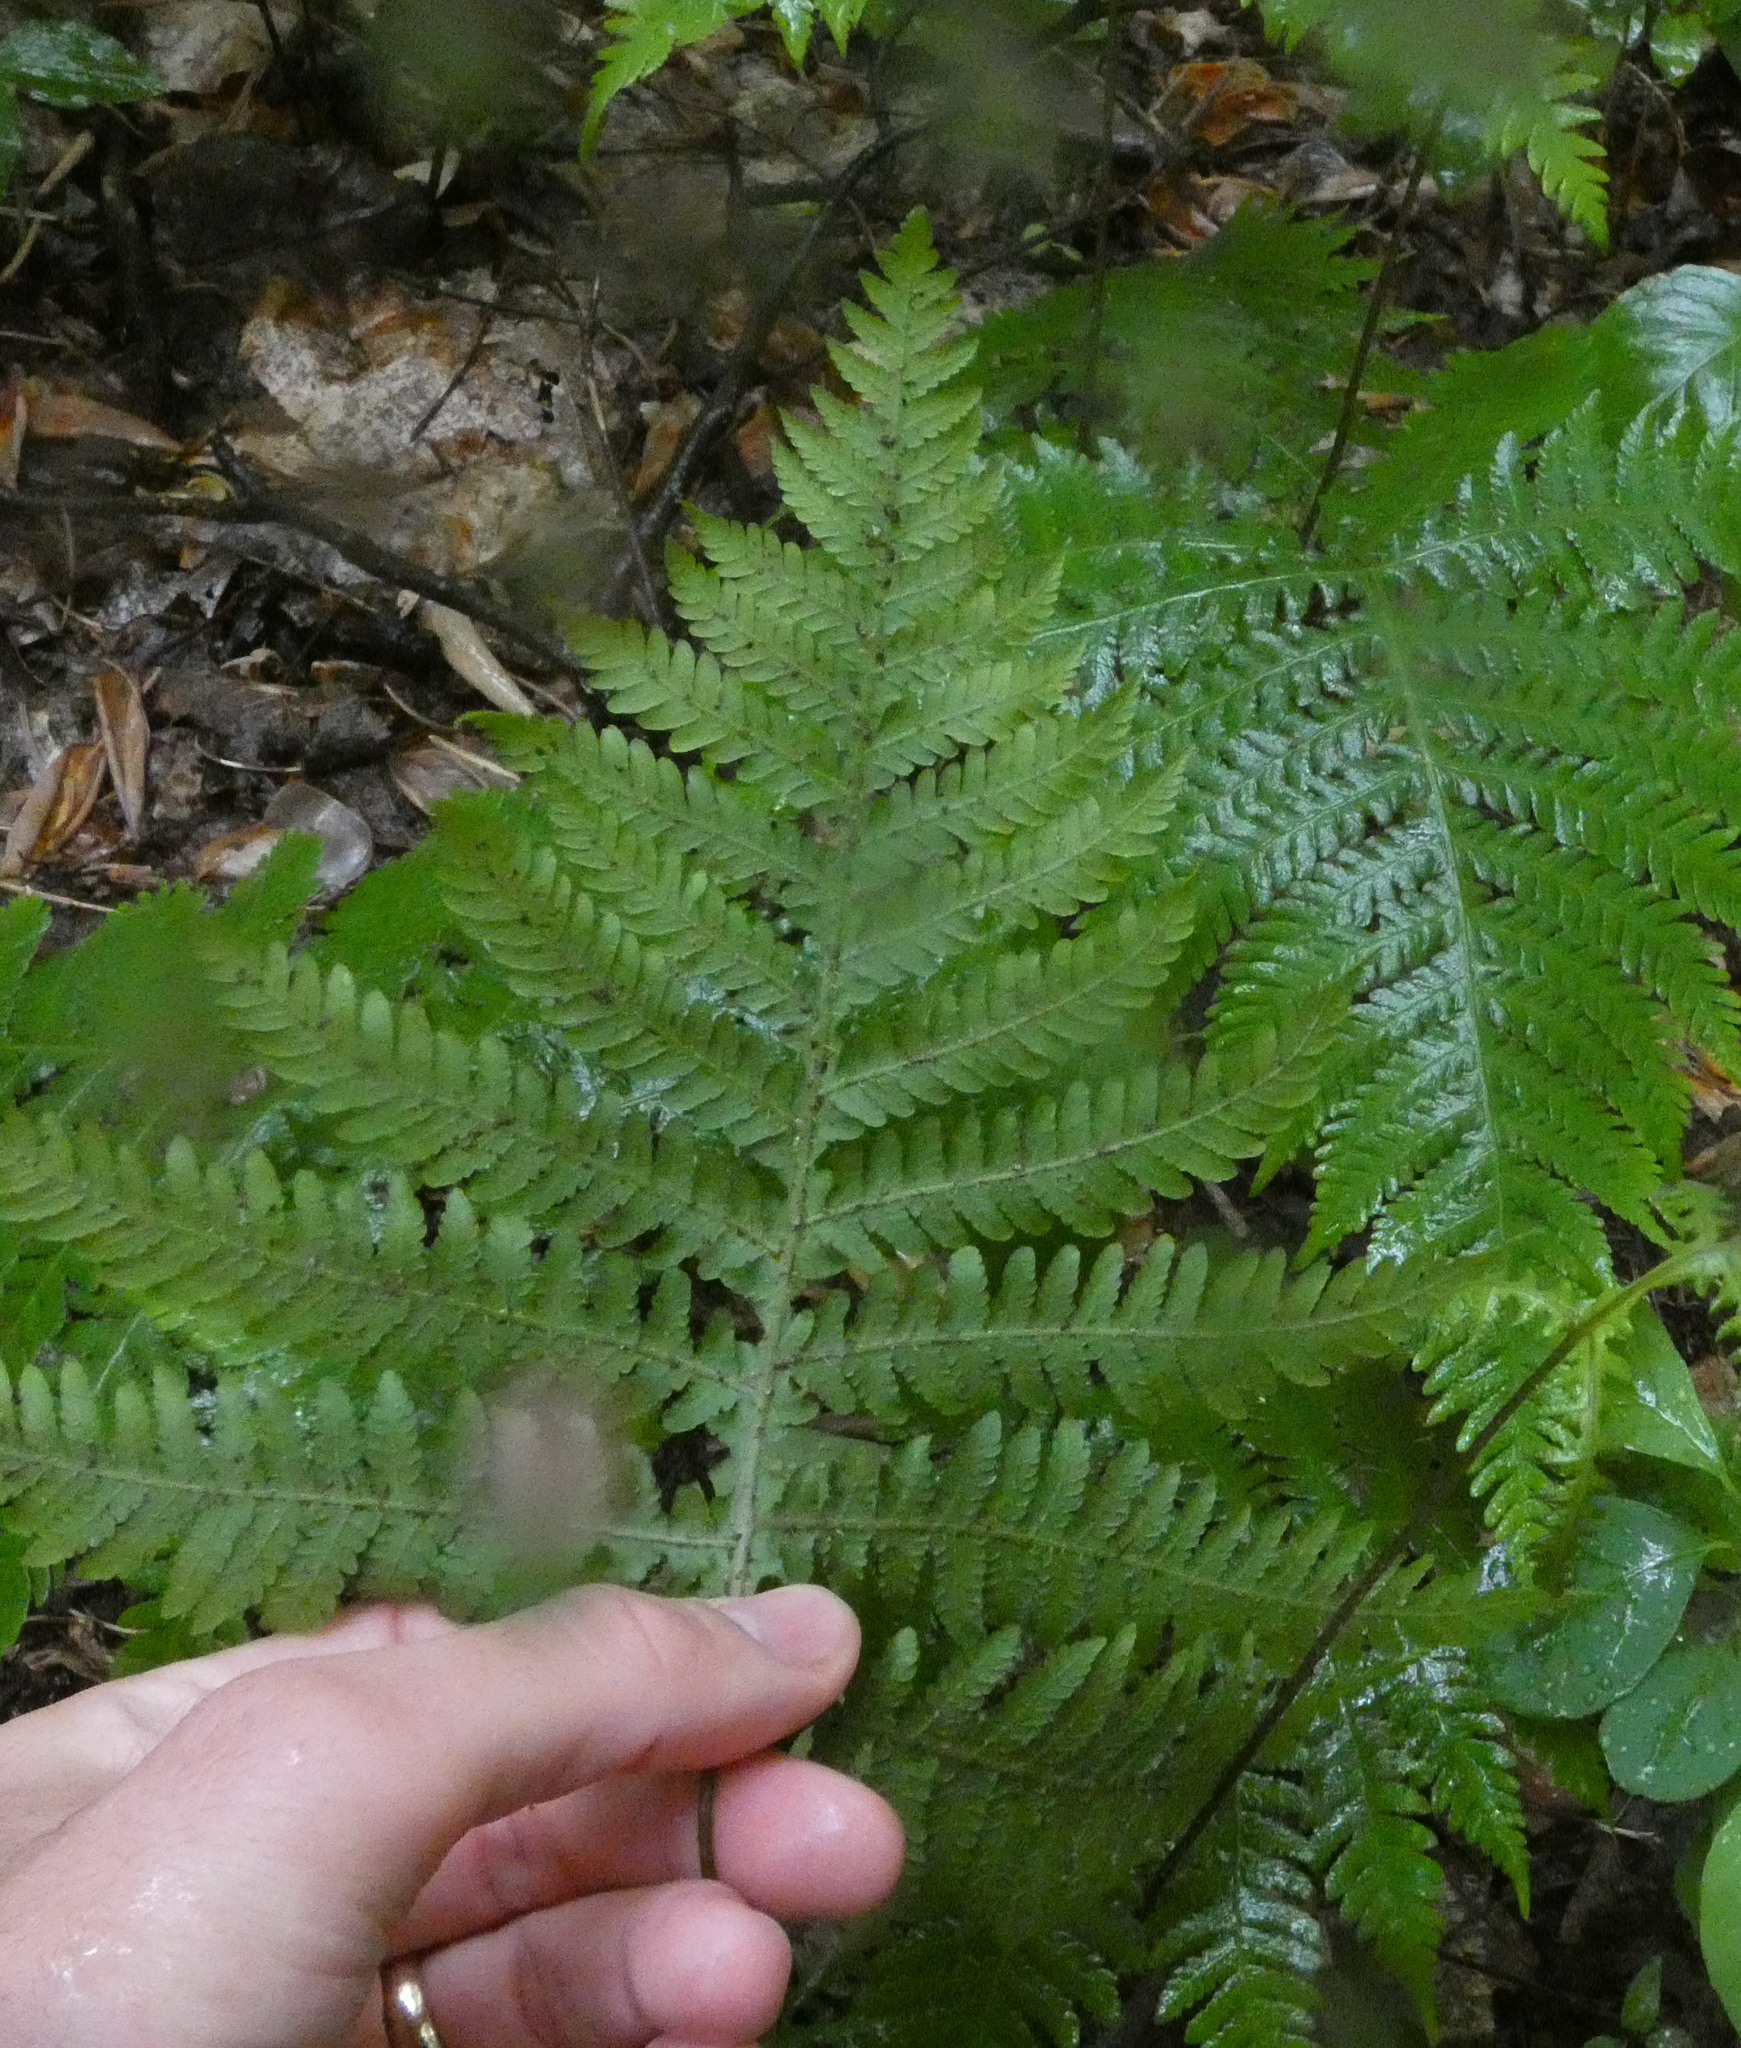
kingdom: Plantae
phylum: Tracheophyta
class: Polypodiopsida
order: Polypodiales
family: Thelypteridaceae
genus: Phegopteris
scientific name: Phegopteris hexagonoptera
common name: Broad beech fern
